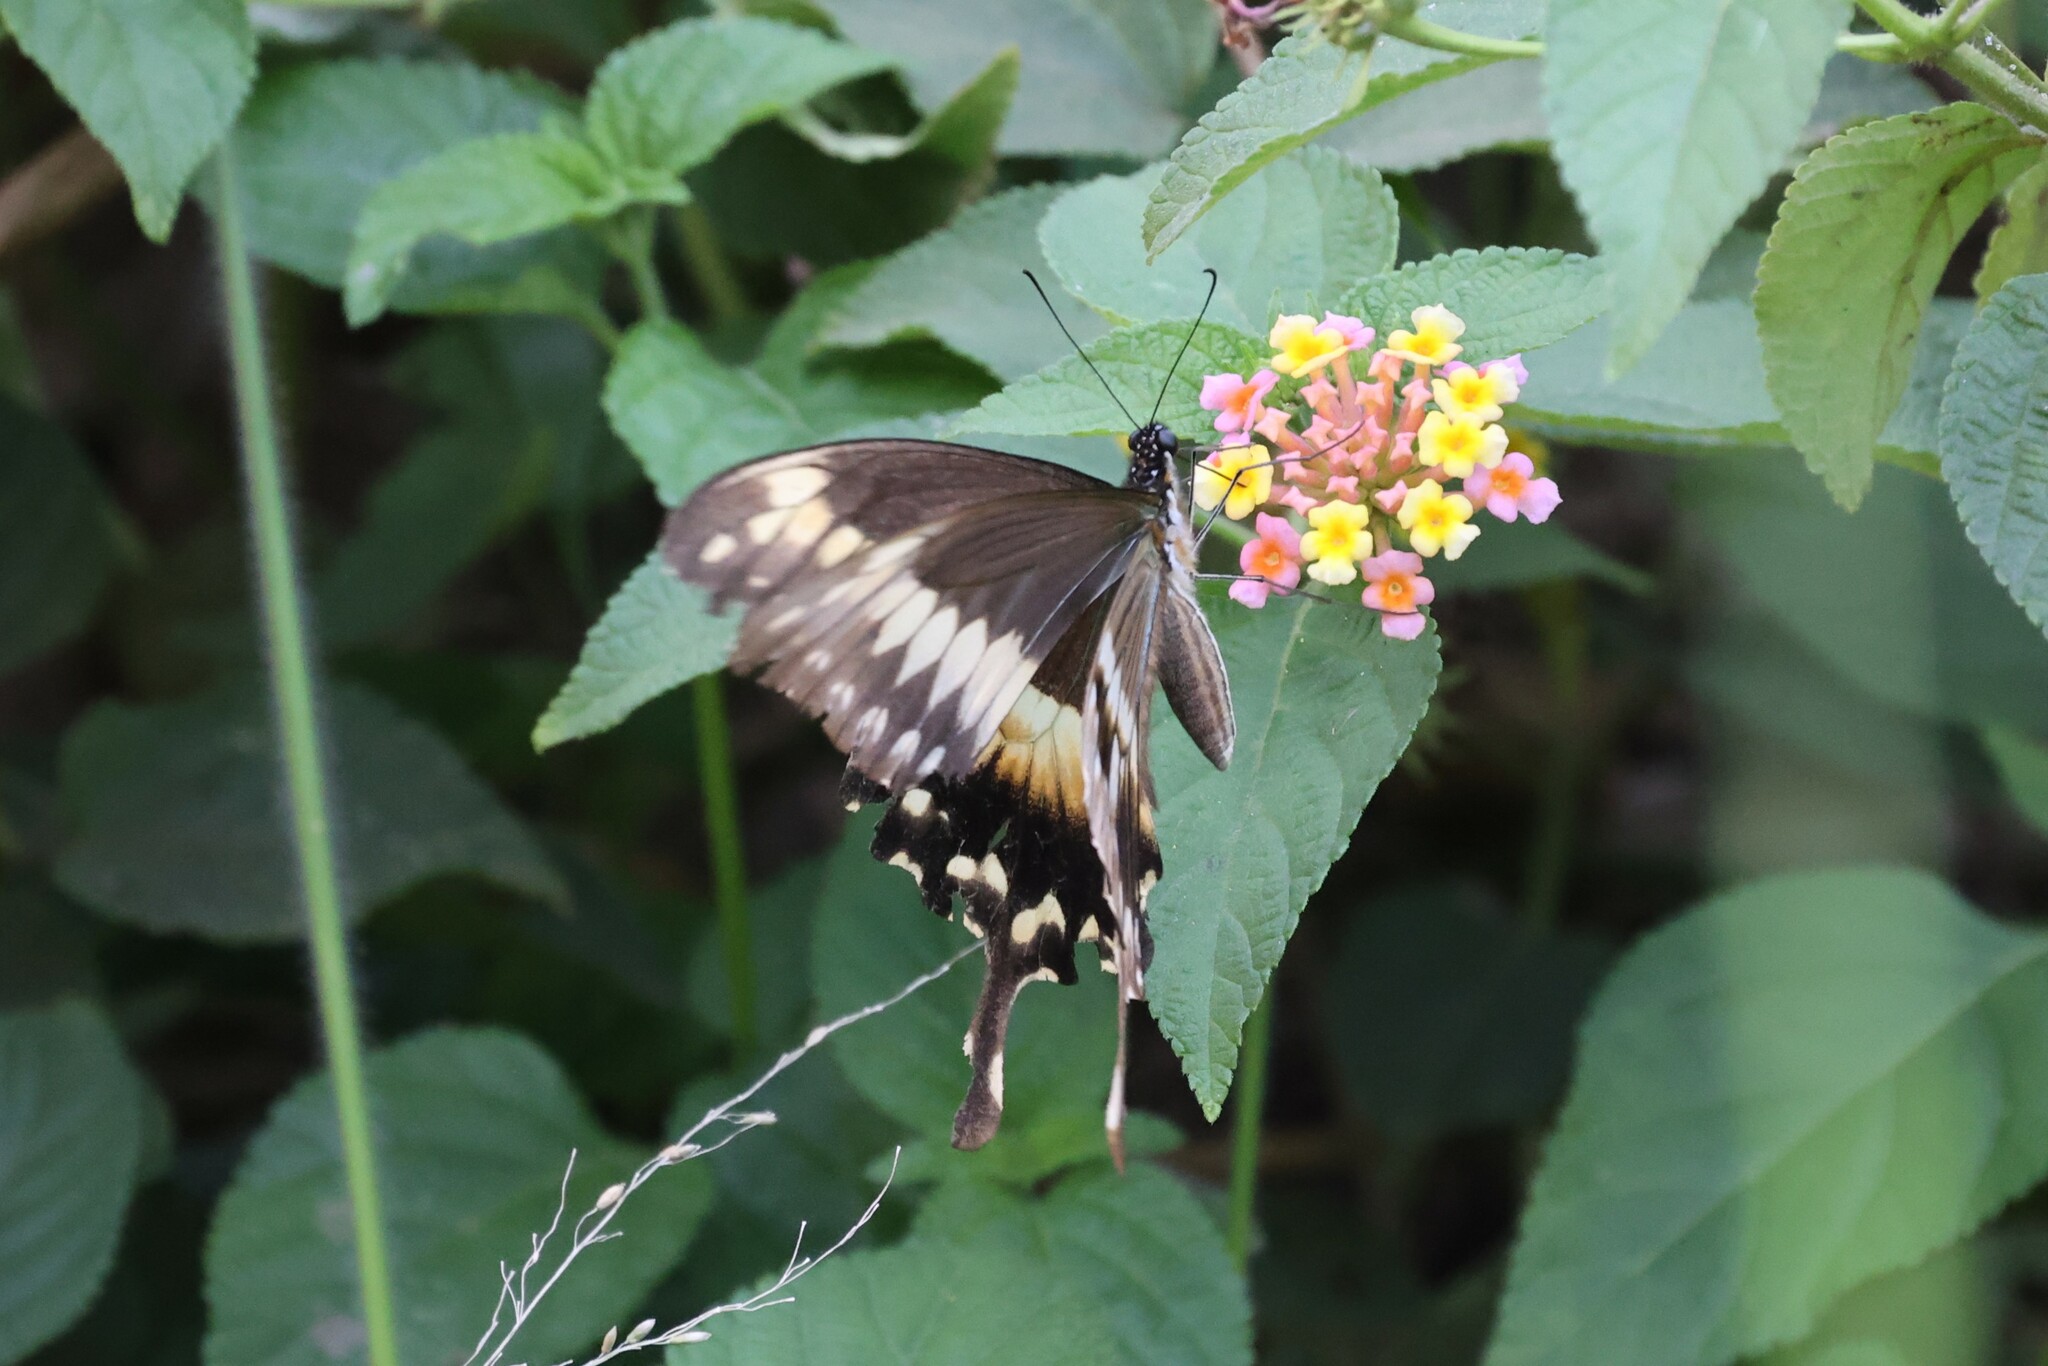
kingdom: Animalia
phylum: Arthropoda
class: Insecta
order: Lepidoptera
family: Papilionidae
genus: Papilio
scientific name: Papilio phorcas
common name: Apple-green swallowtail
